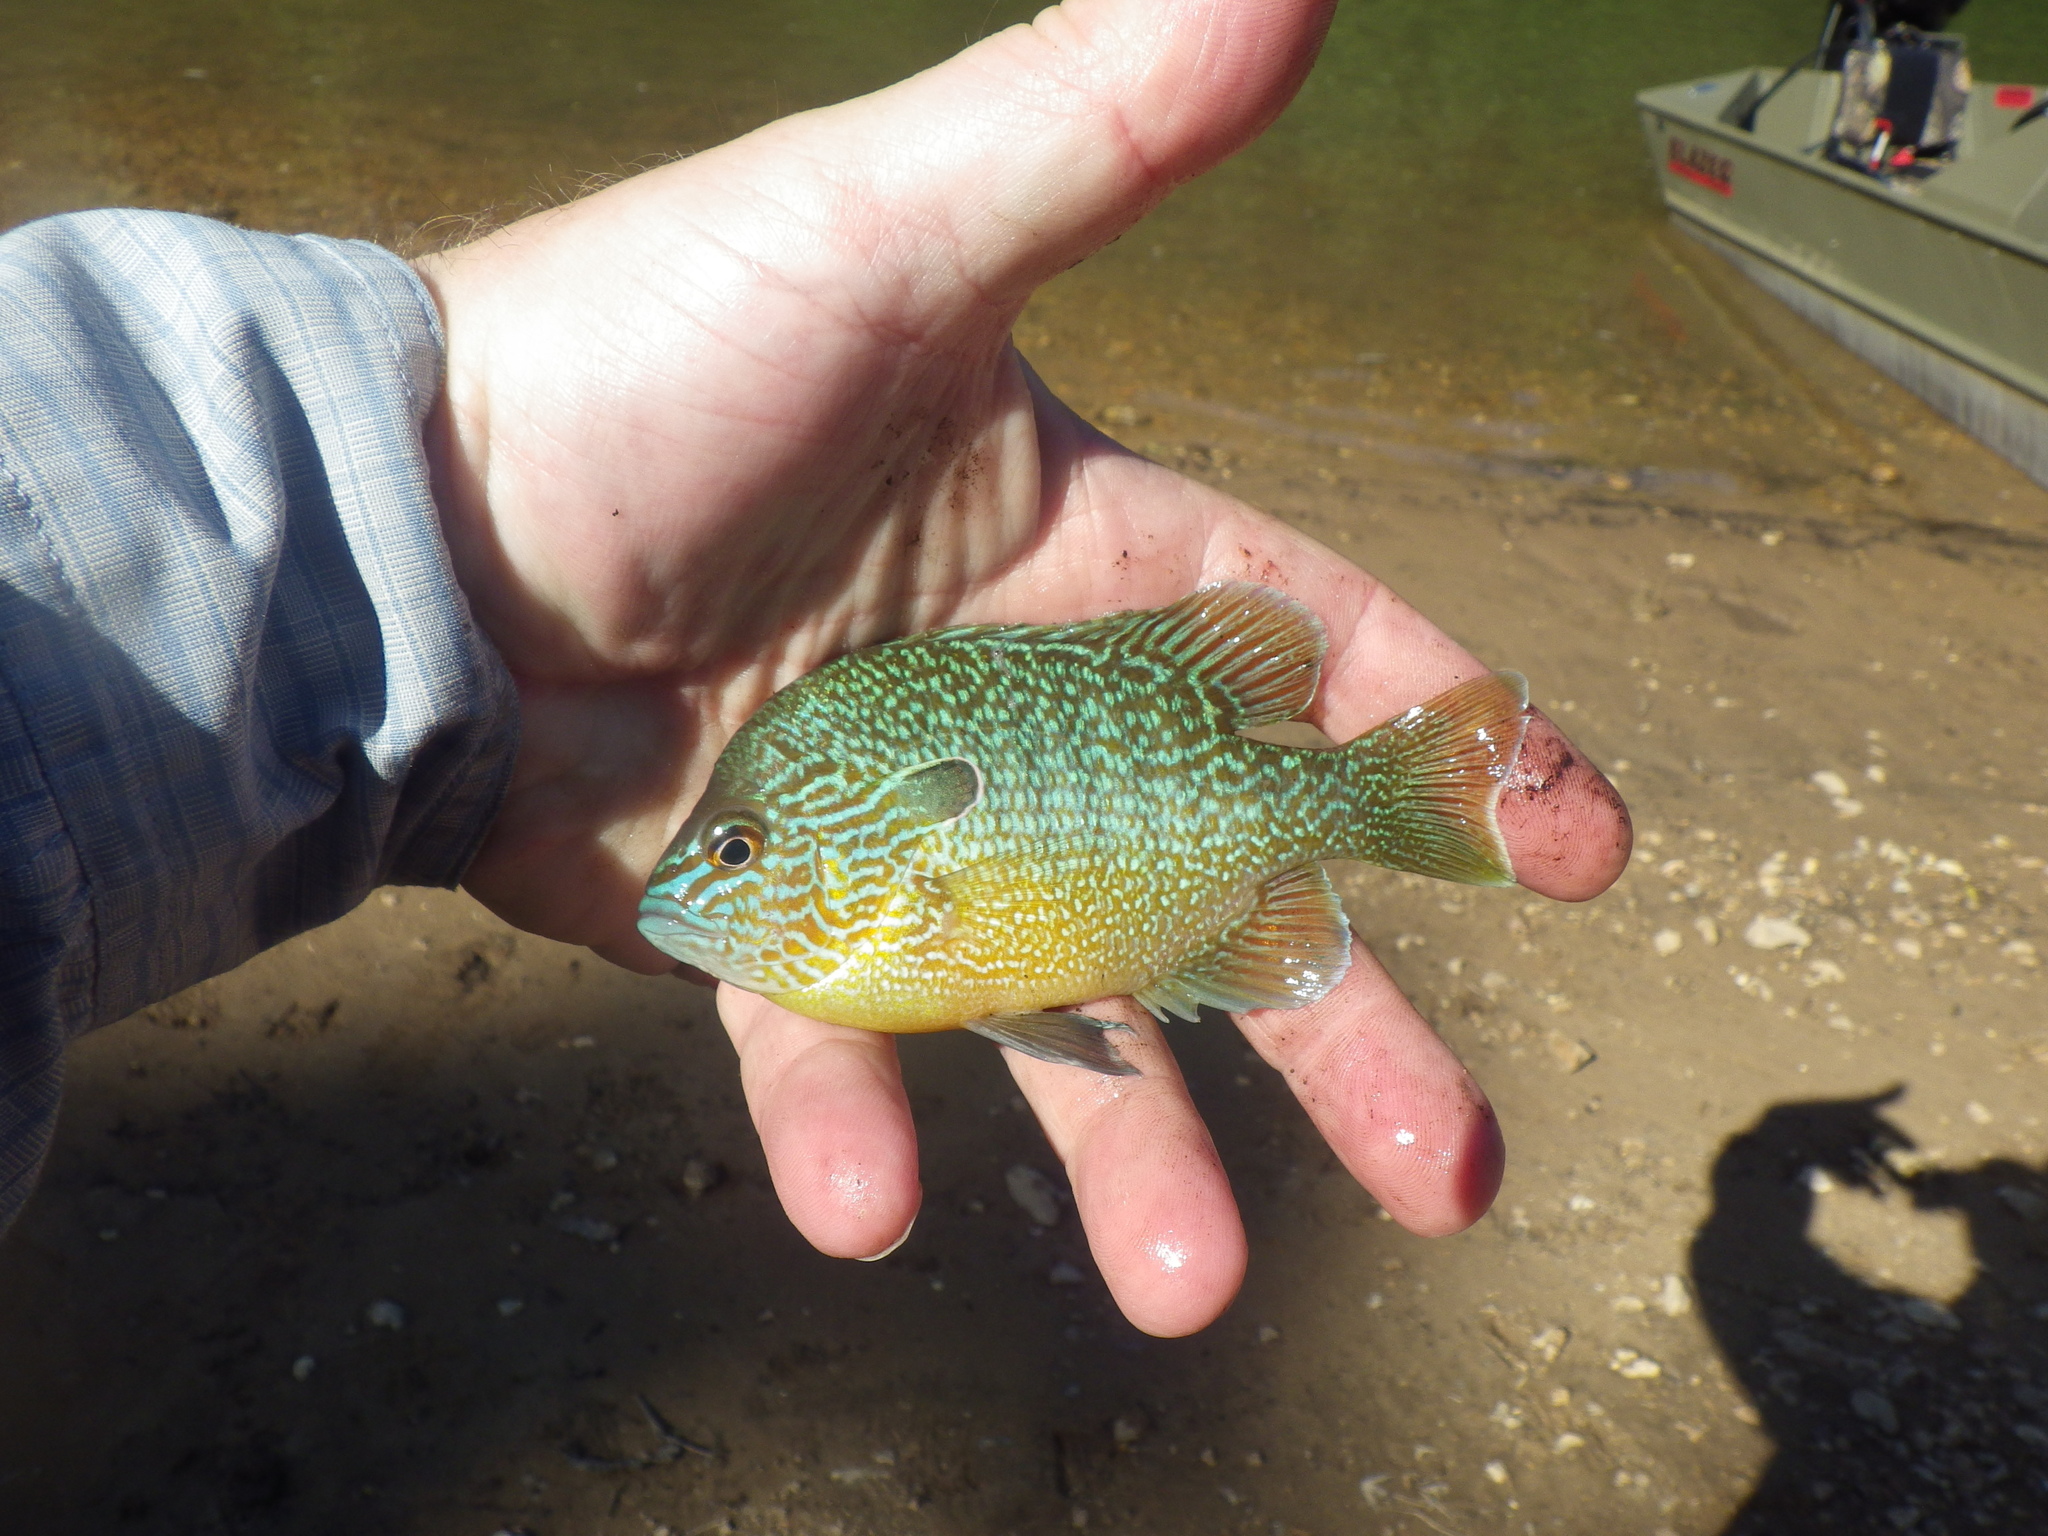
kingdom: Animalia
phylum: Chordata
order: Perciformes
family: Centrarchidae
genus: Lepomis
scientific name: Lepomis megalotis
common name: Longear sunfish
